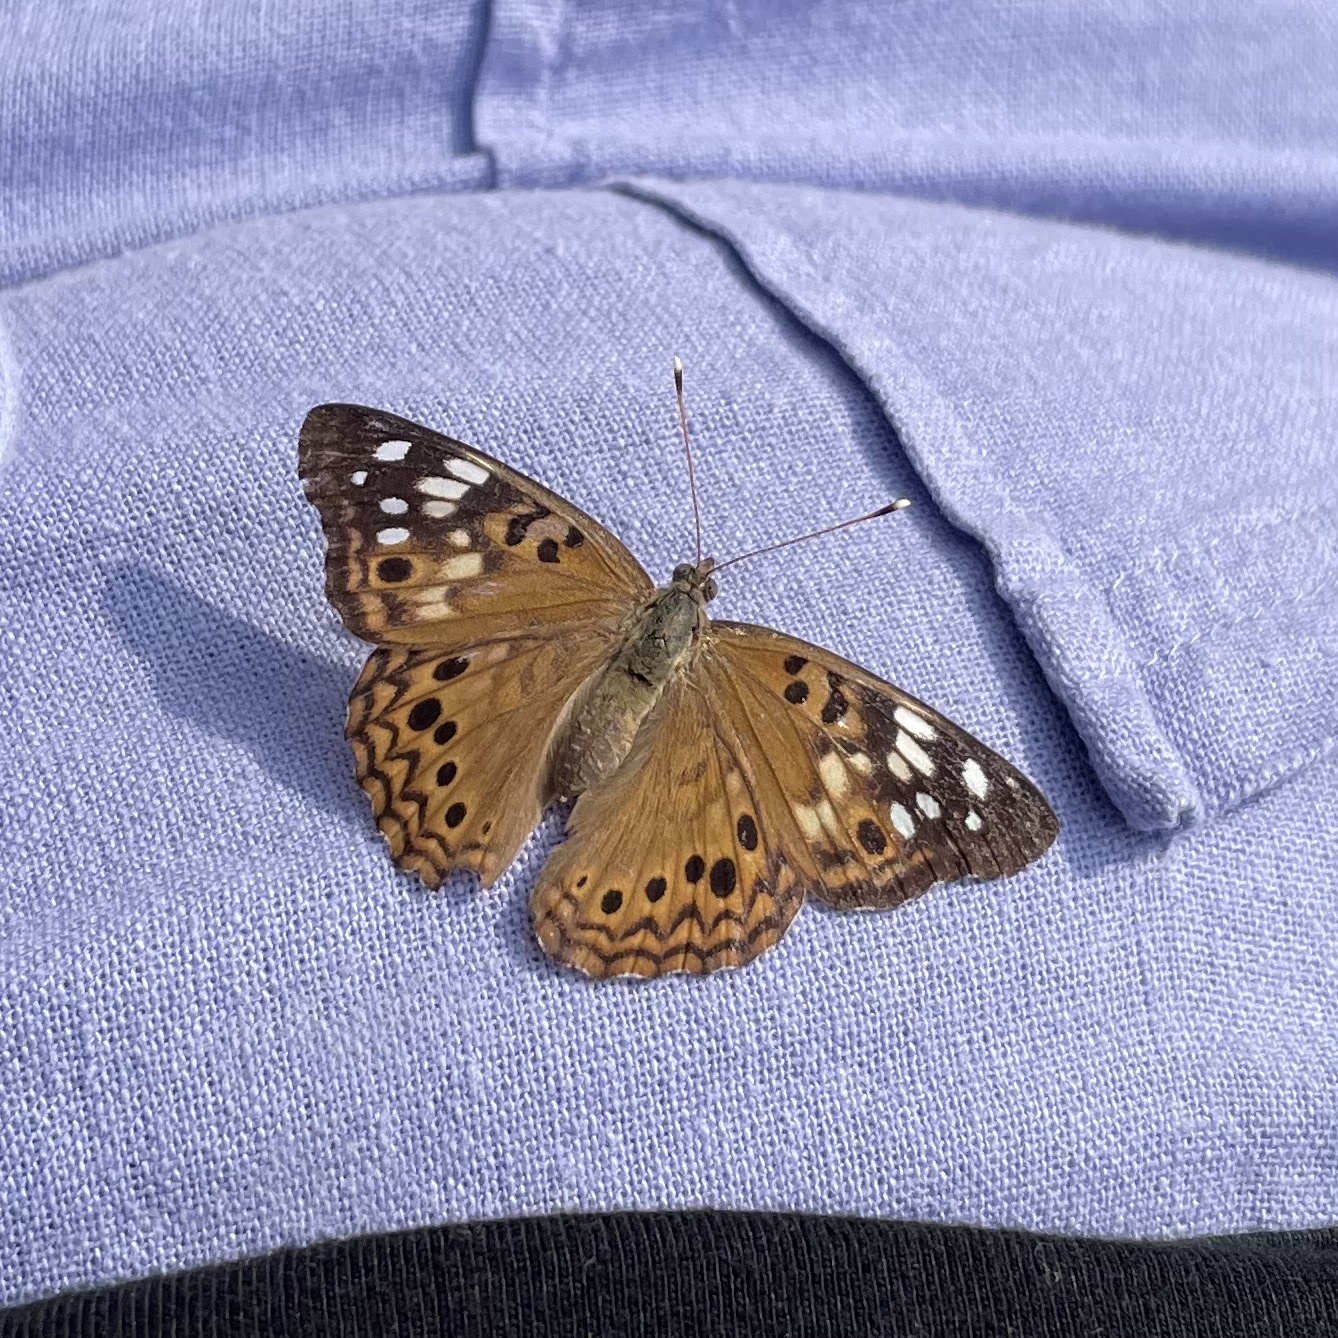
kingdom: Animalia
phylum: Arthropoda
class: Insecta
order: Lepidoptera
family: Nymphalidae
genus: Asterocampa
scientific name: Asterocampa celtis
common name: Hackberry emperor
